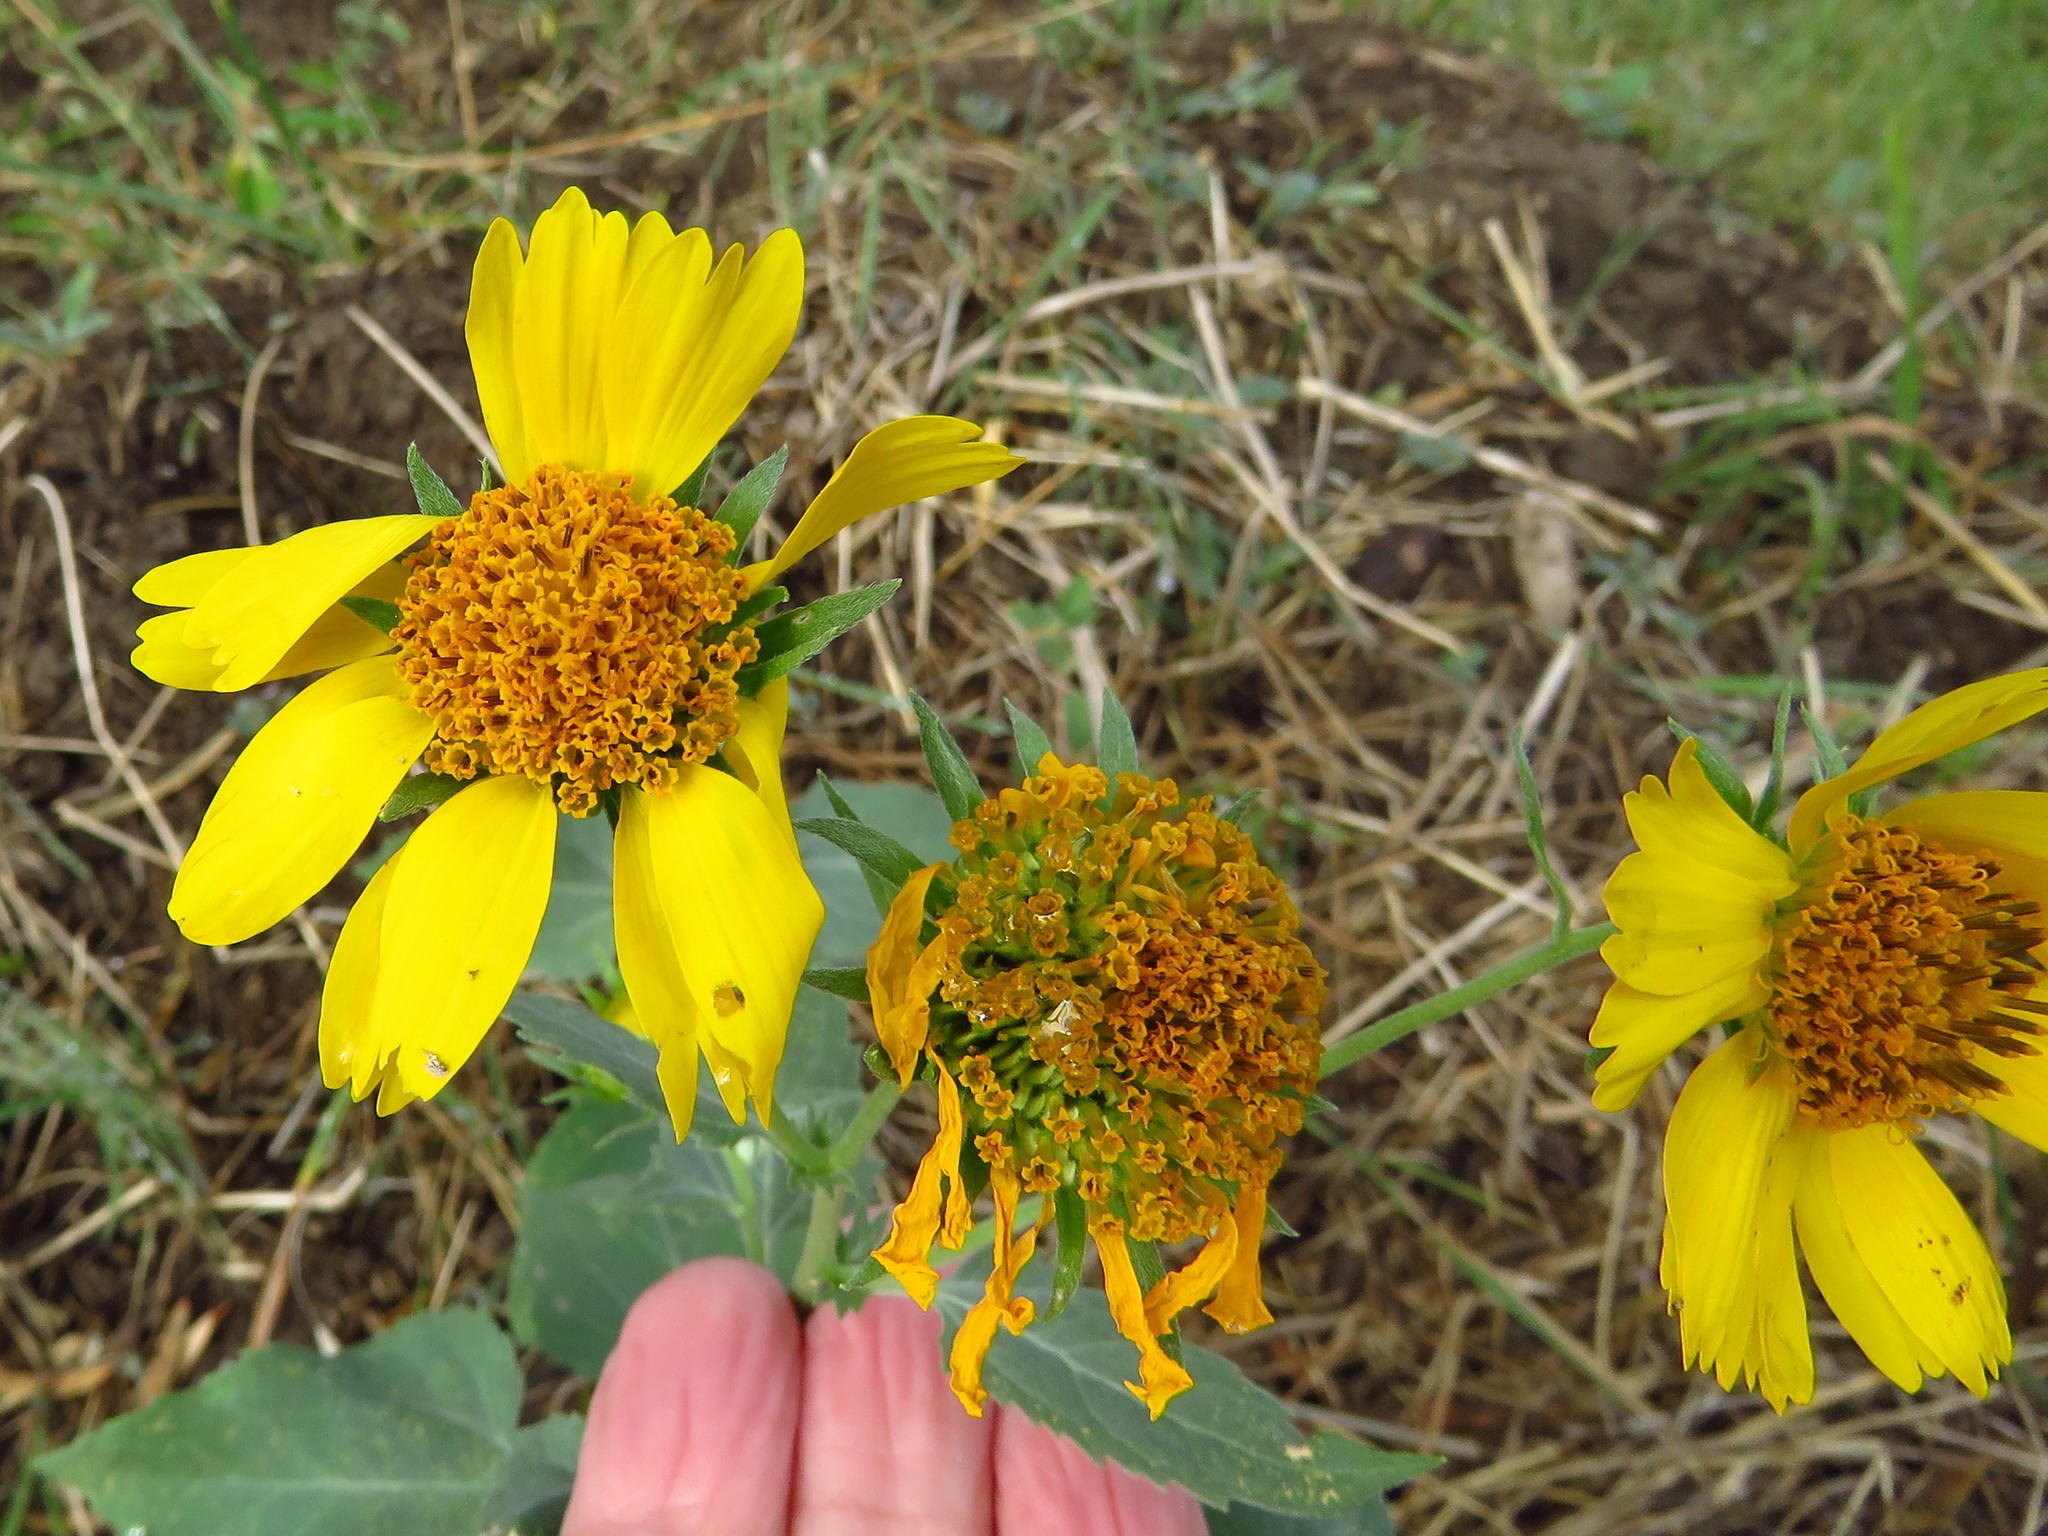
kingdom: Plantae
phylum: Tracheophyta
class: Magnoliopsida
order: Asterales
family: Asteraceae
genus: Verbesina
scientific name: Verbesina encelioides
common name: Golden crownbeard
